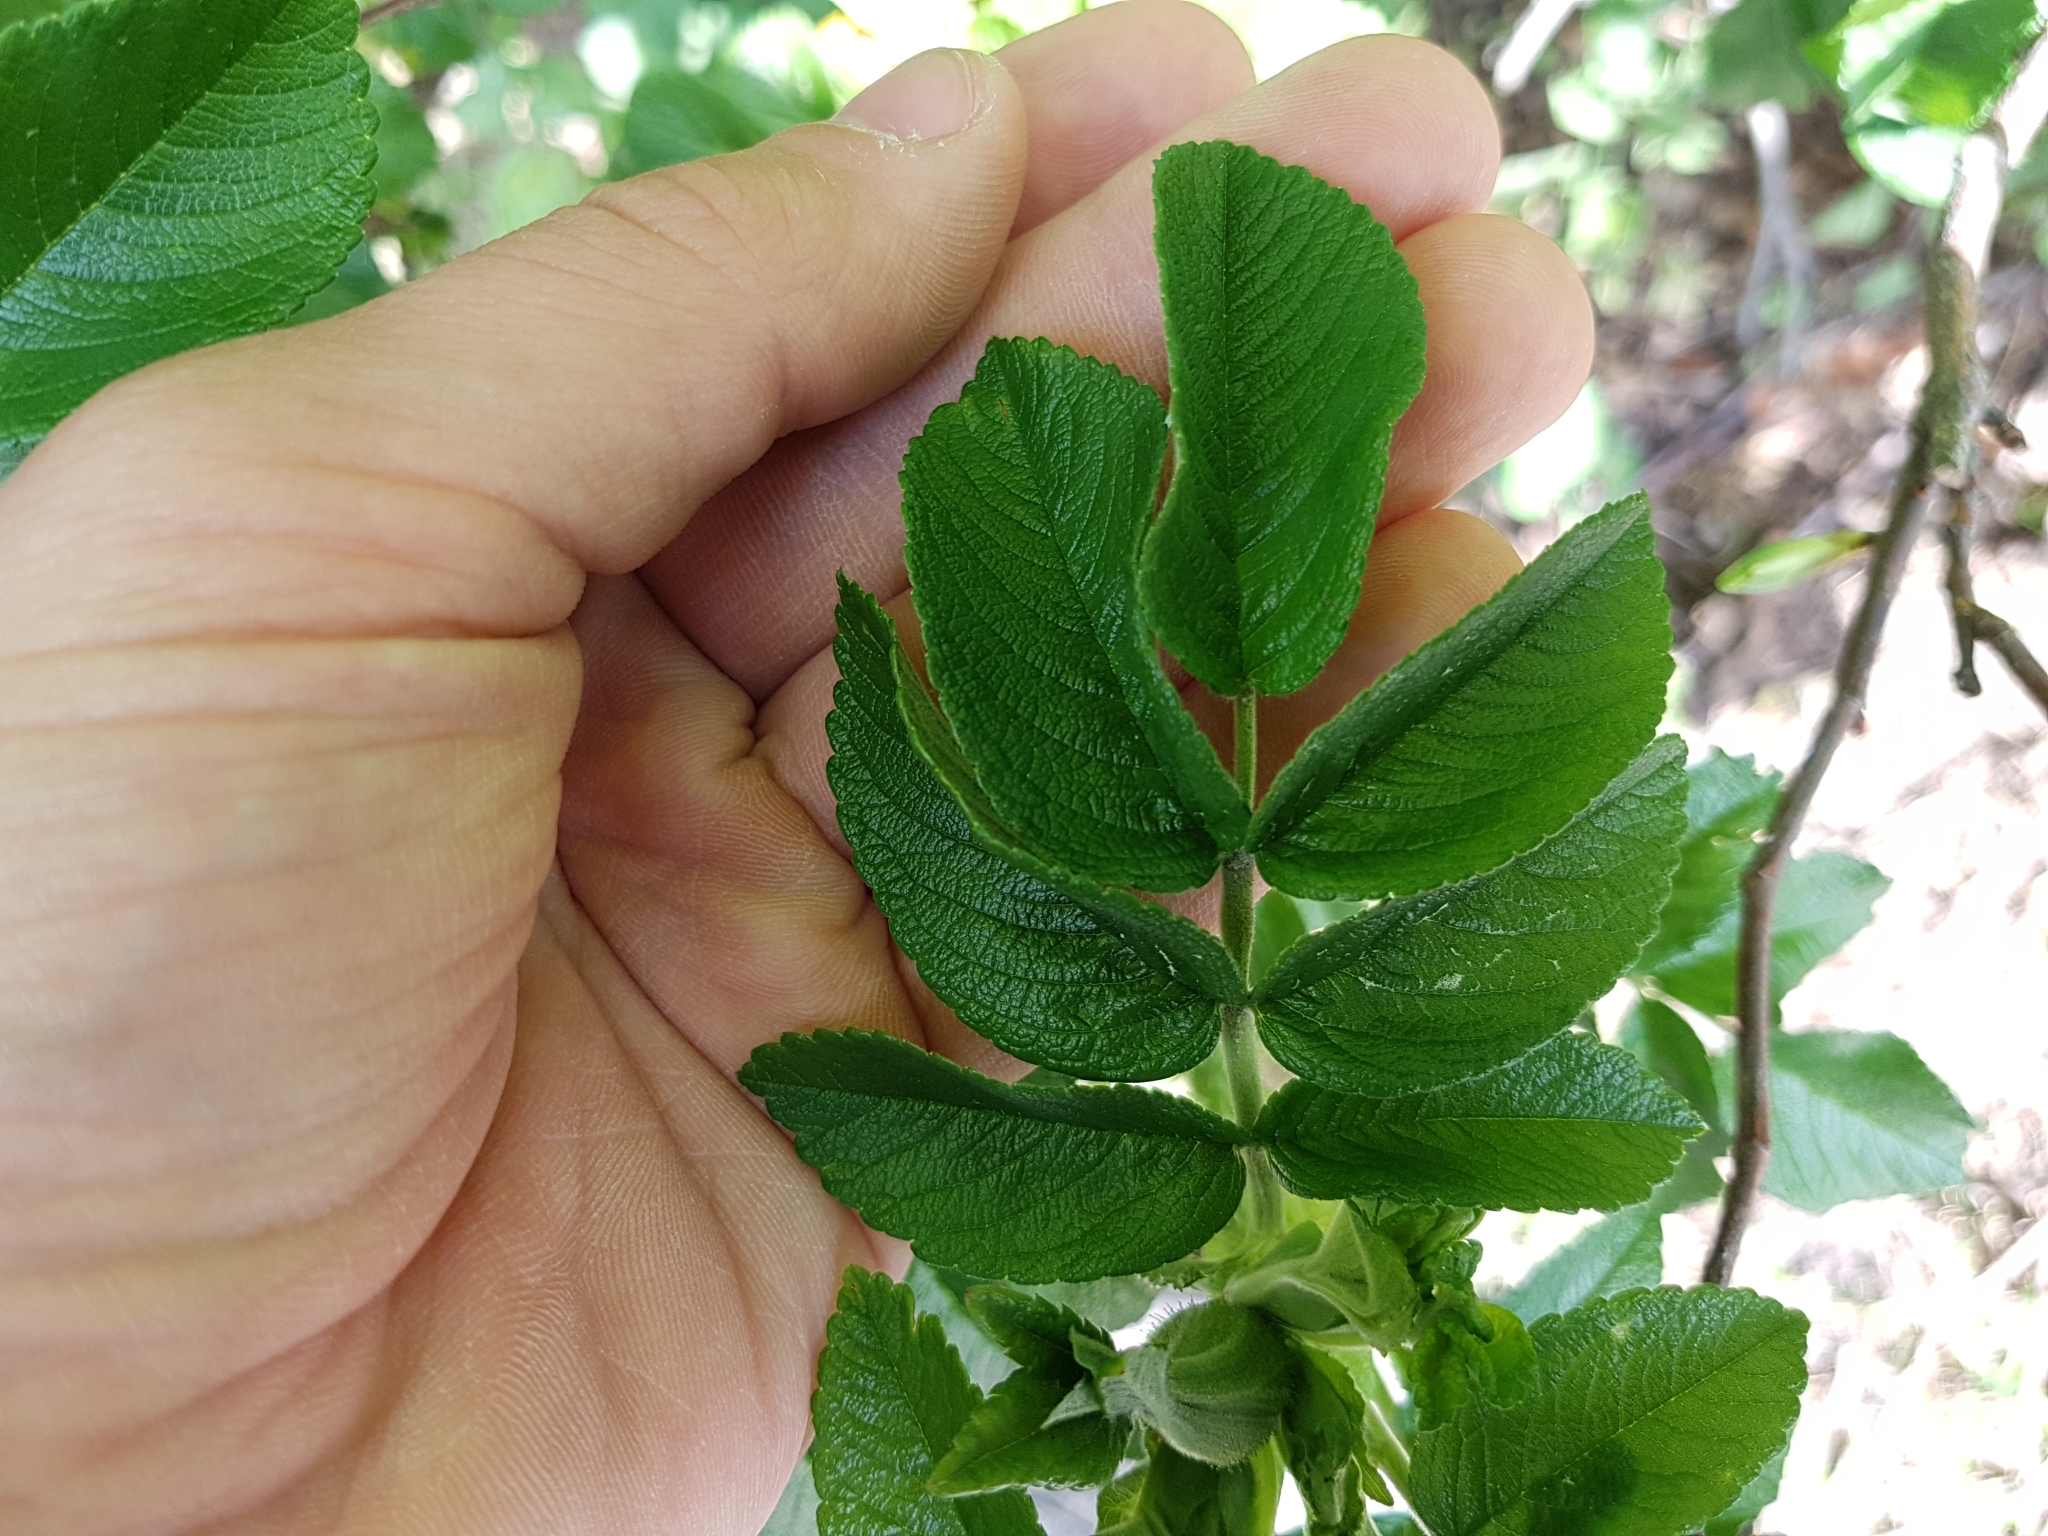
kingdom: Plantae
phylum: Tracheophyta
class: Magnoliopsida
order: Rosales
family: Rosaceae
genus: Rosa
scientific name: Rosa rugosa
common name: Japanese rose
